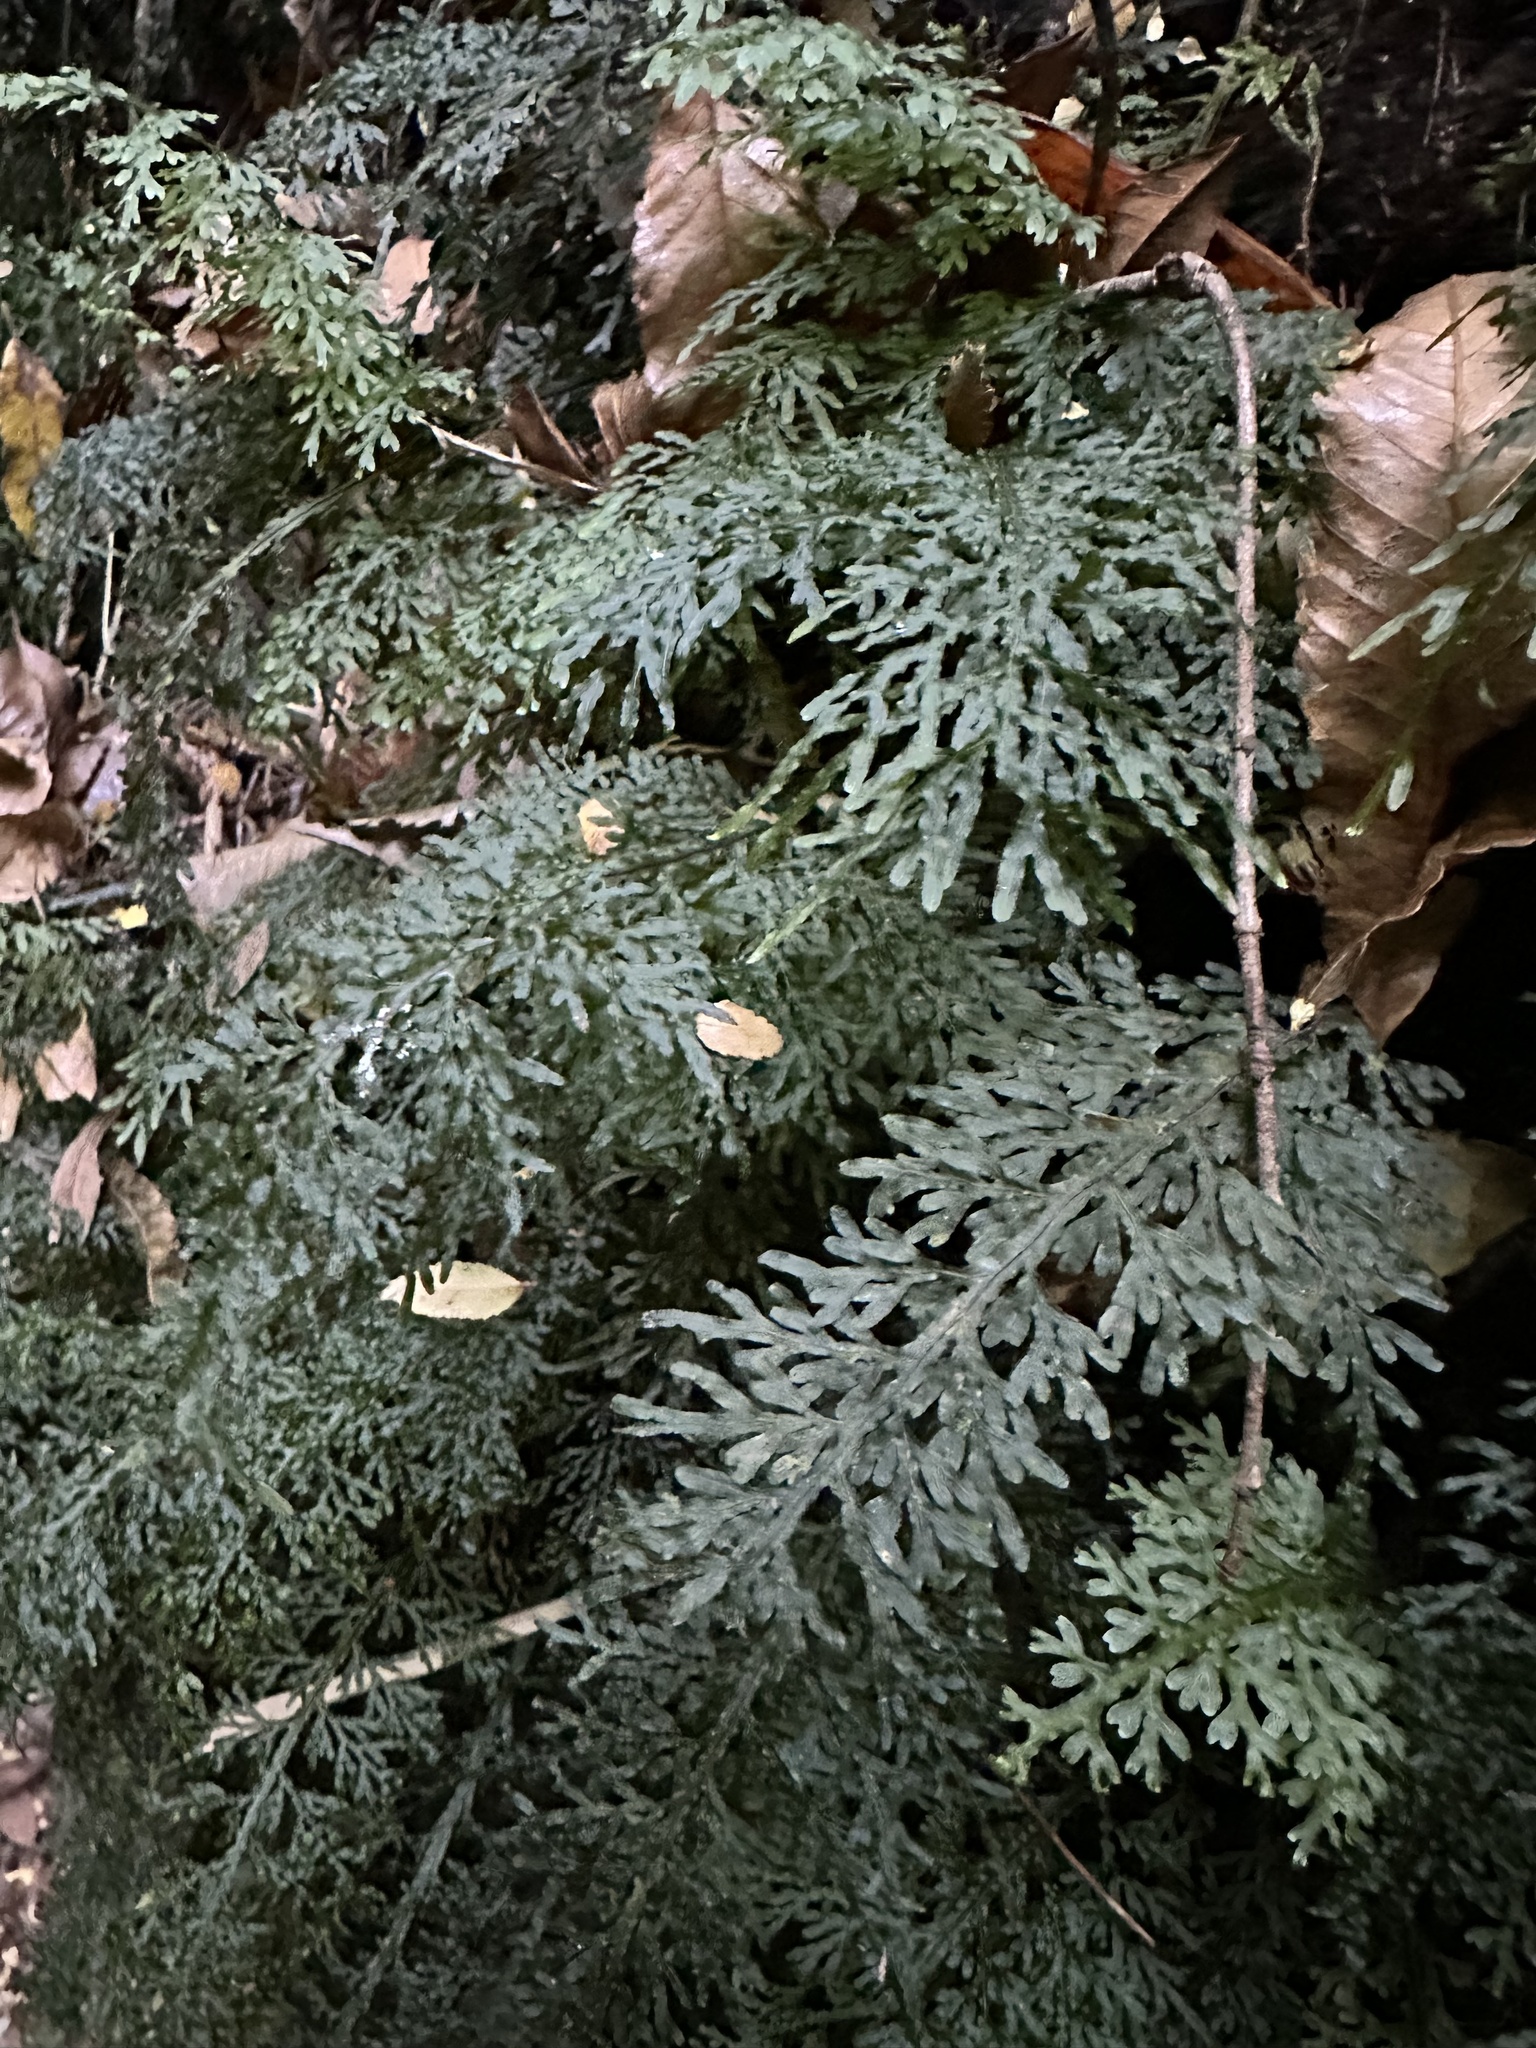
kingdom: Plantae
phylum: Tracheophyta
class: Polypodiopsida
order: Hymenophyllales
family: Hymenophyllaceae
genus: Hymenophyllum
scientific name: Hymenophyllum caudiculatum
